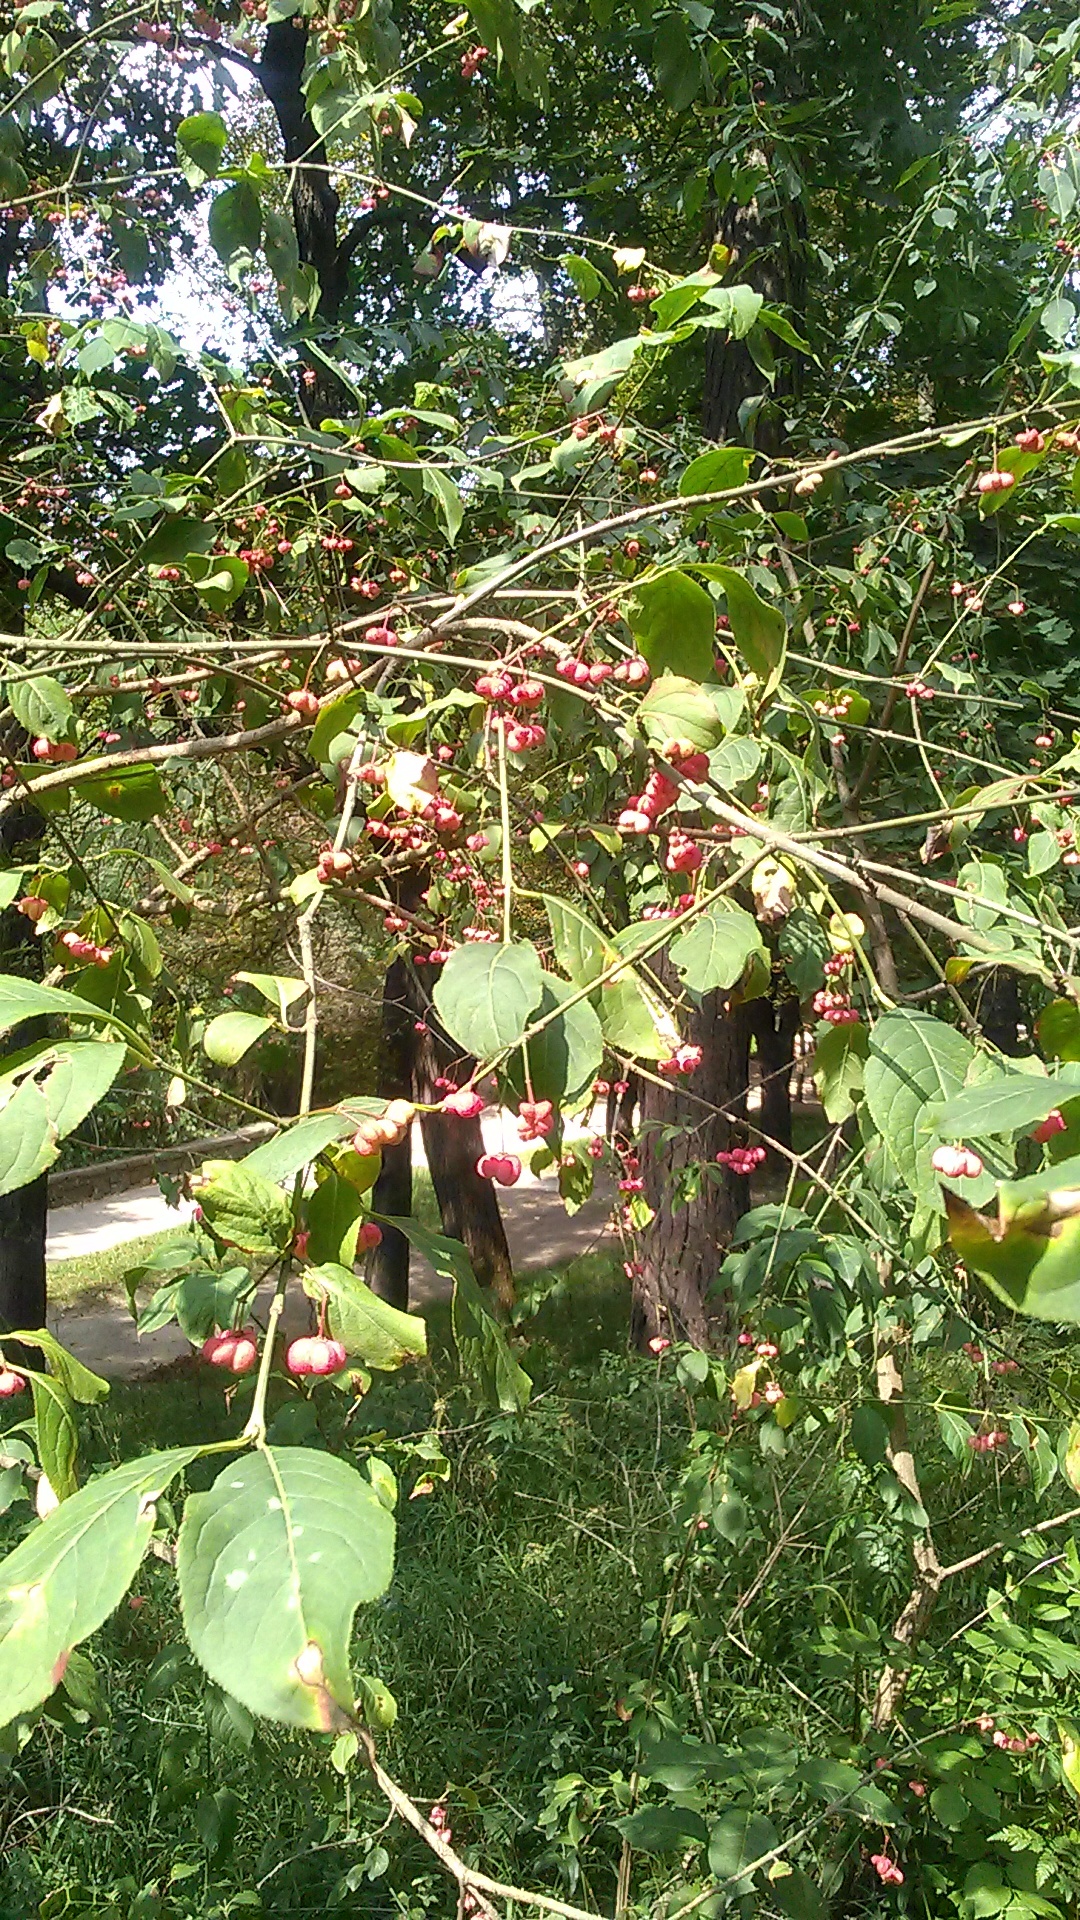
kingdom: Plantae
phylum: Tracheophyta
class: Magnoliopsida
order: Celastrales
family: Celastraceae
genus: Euonymus
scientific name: Euonymus europaeus
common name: Spindle
